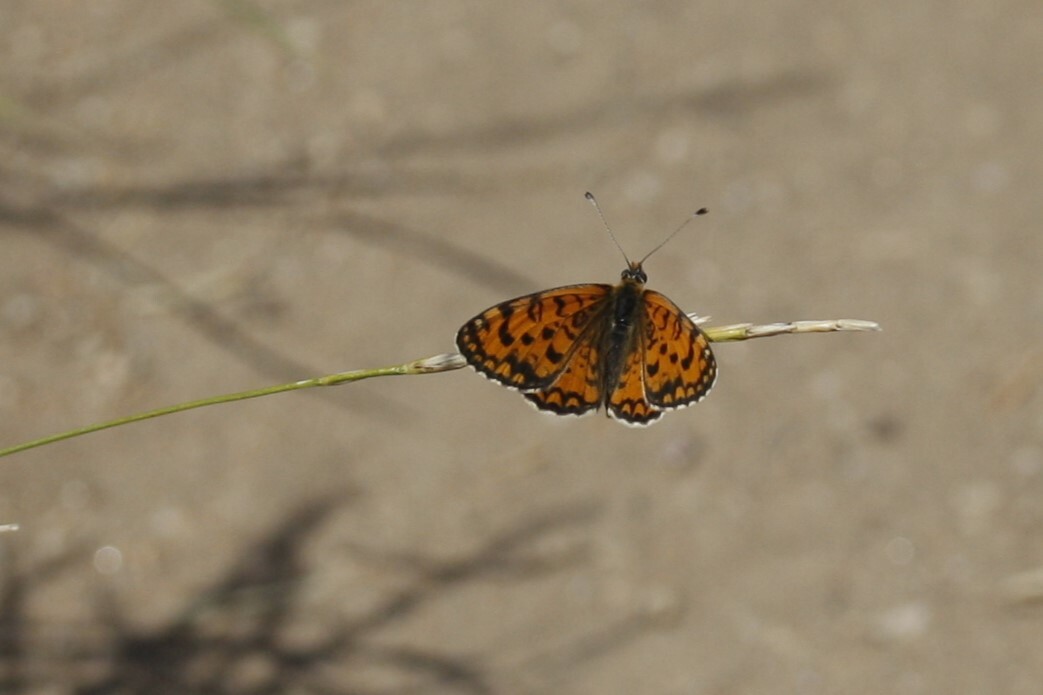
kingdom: Animalia
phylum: Arthropoda
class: Insecta
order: Lepidoptera
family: Nymphalidae
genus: Melitaea
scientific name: Melitaea trivia
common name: Lesser spotted fritillary
